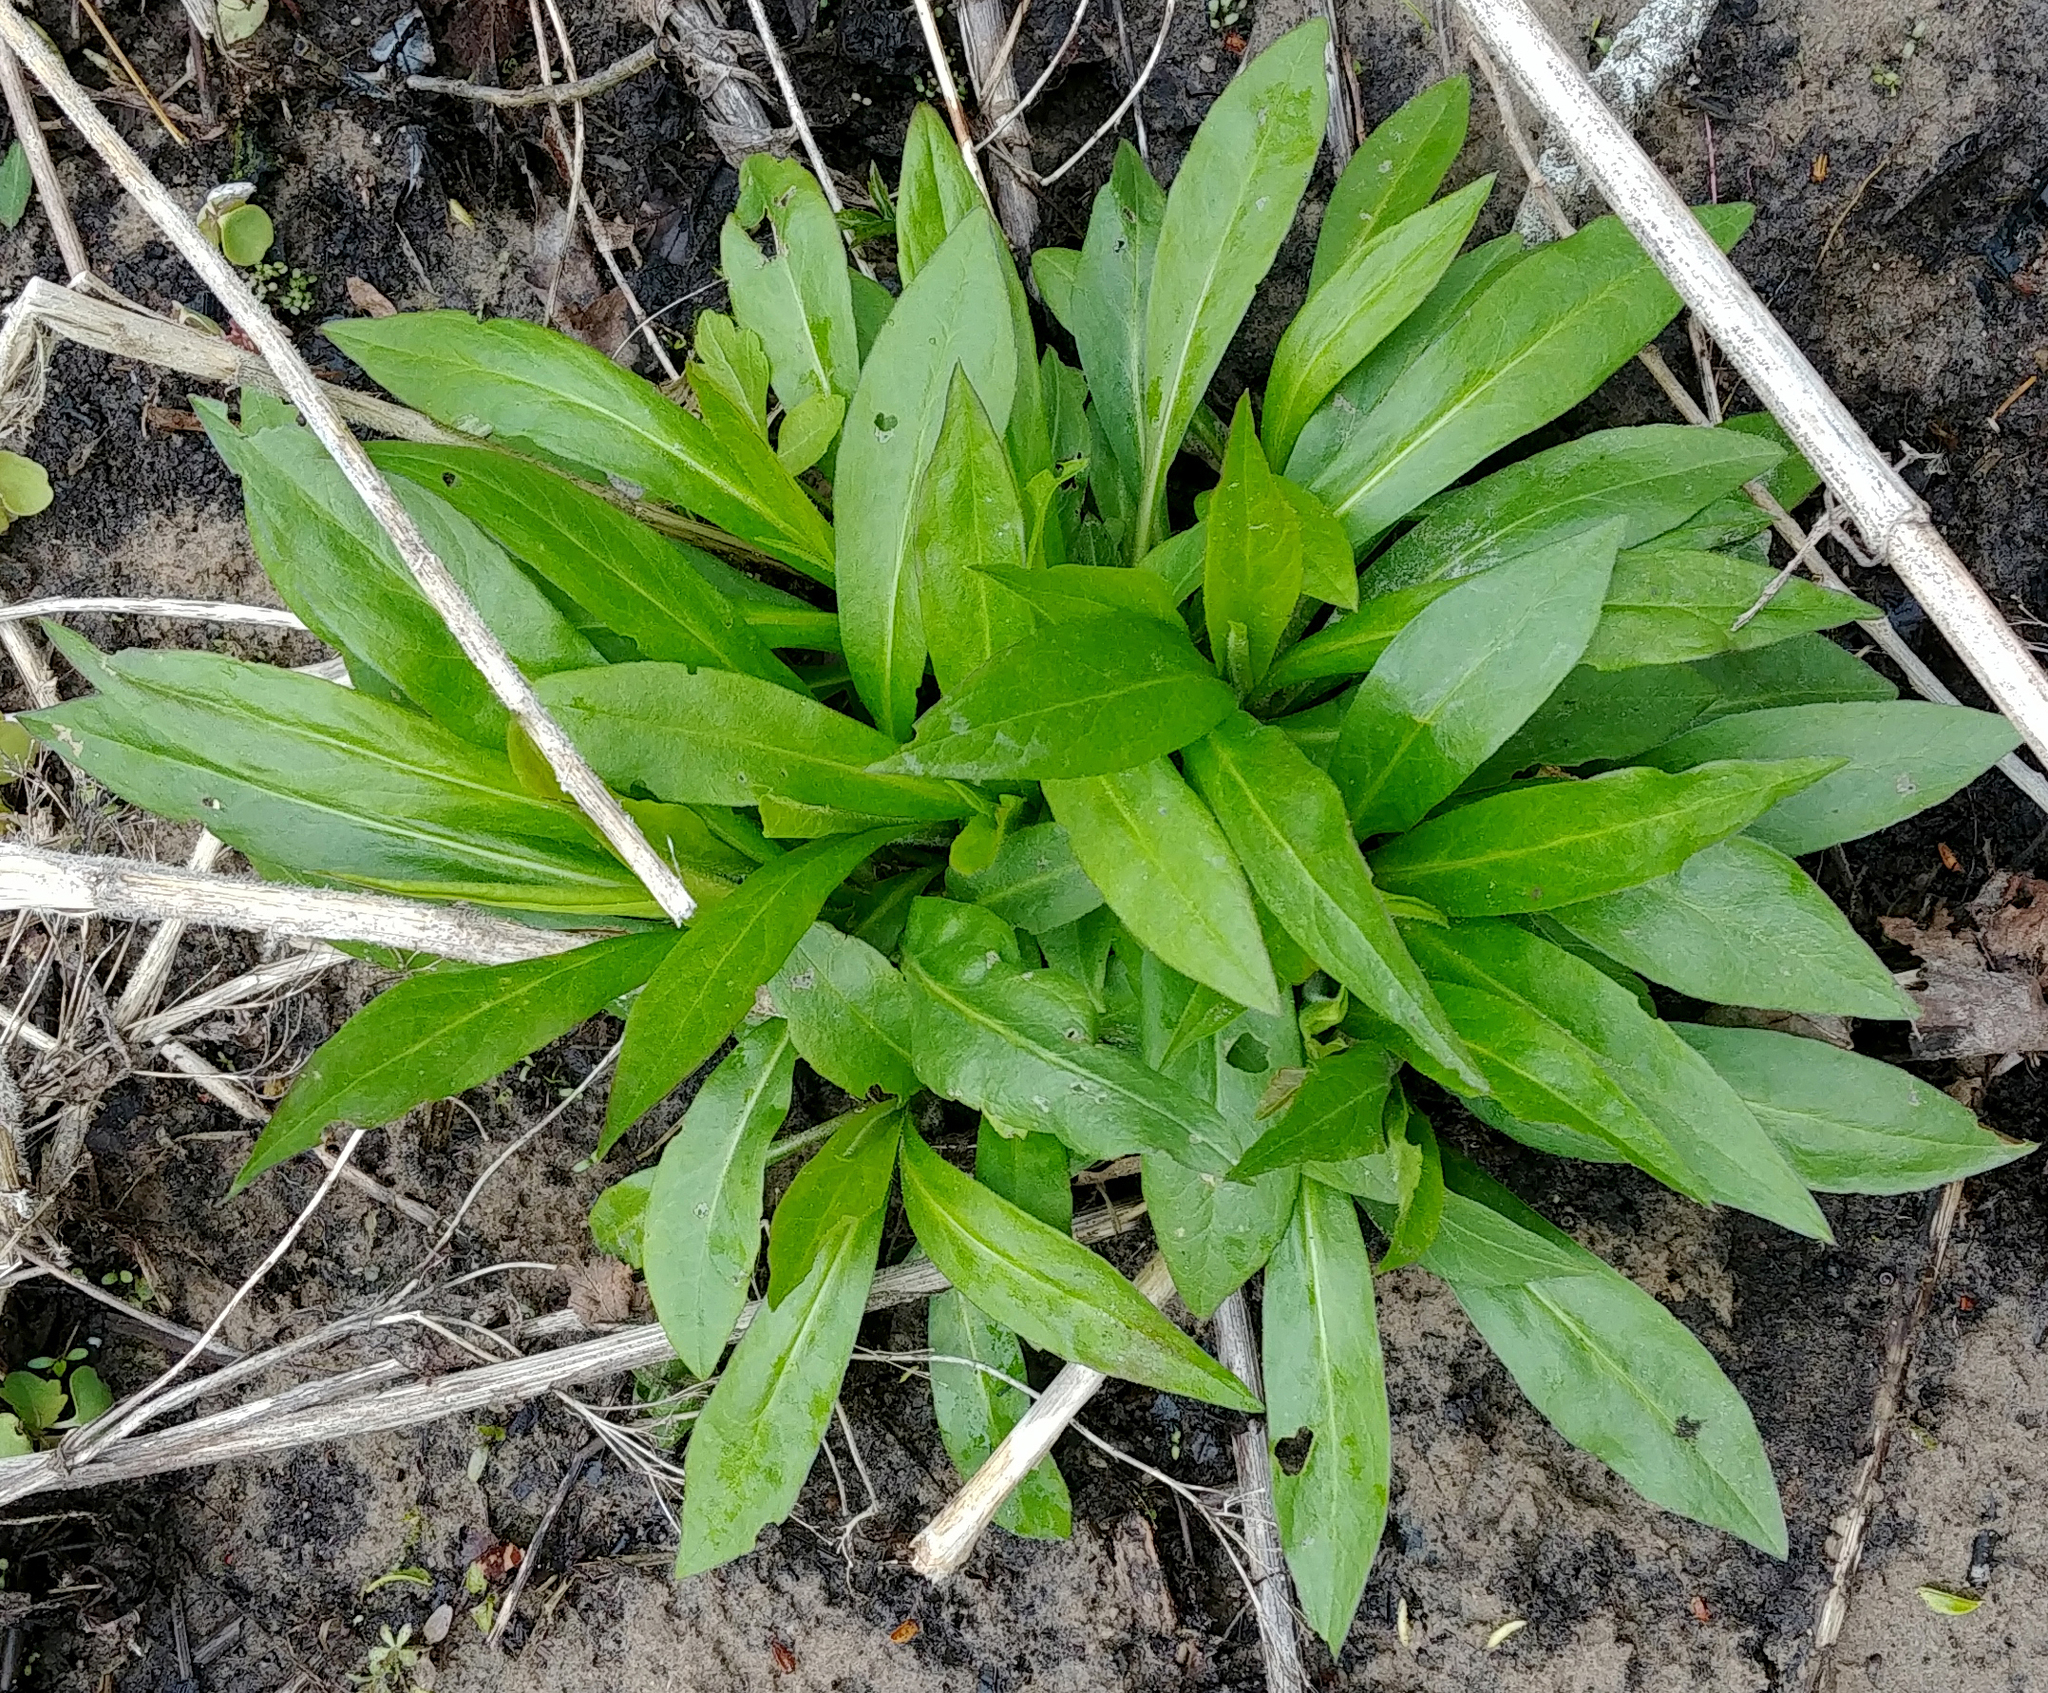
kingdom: Plantae
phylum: Tracheophyta
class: Magnoliopsida
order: Brassicales
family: Brassicaceae
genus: Hesperis
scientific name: Hesperis matronalis
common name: Dame's-violet
